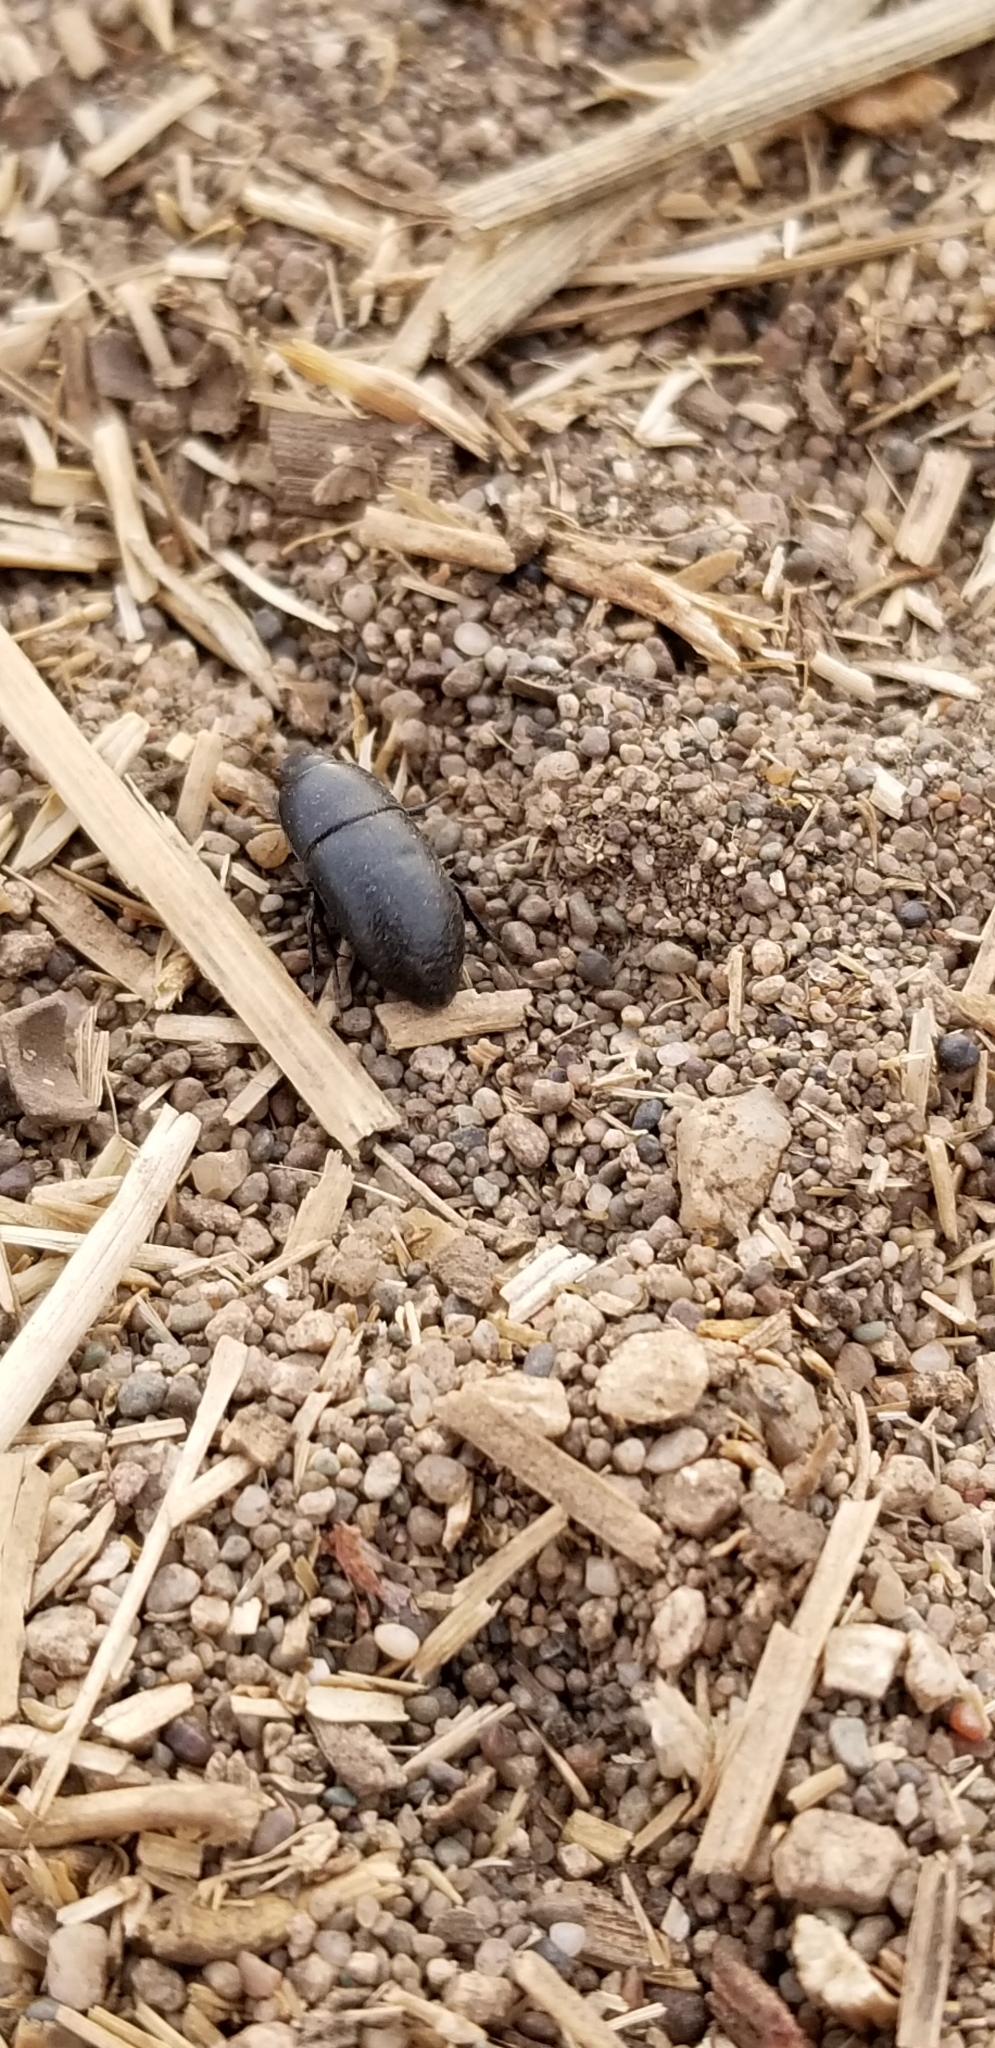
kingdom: Animalia
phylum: Arthropoda
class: Insecta
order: Coleoptera
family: Tenebrionidae
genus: Coniontis
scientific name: Coniontis
